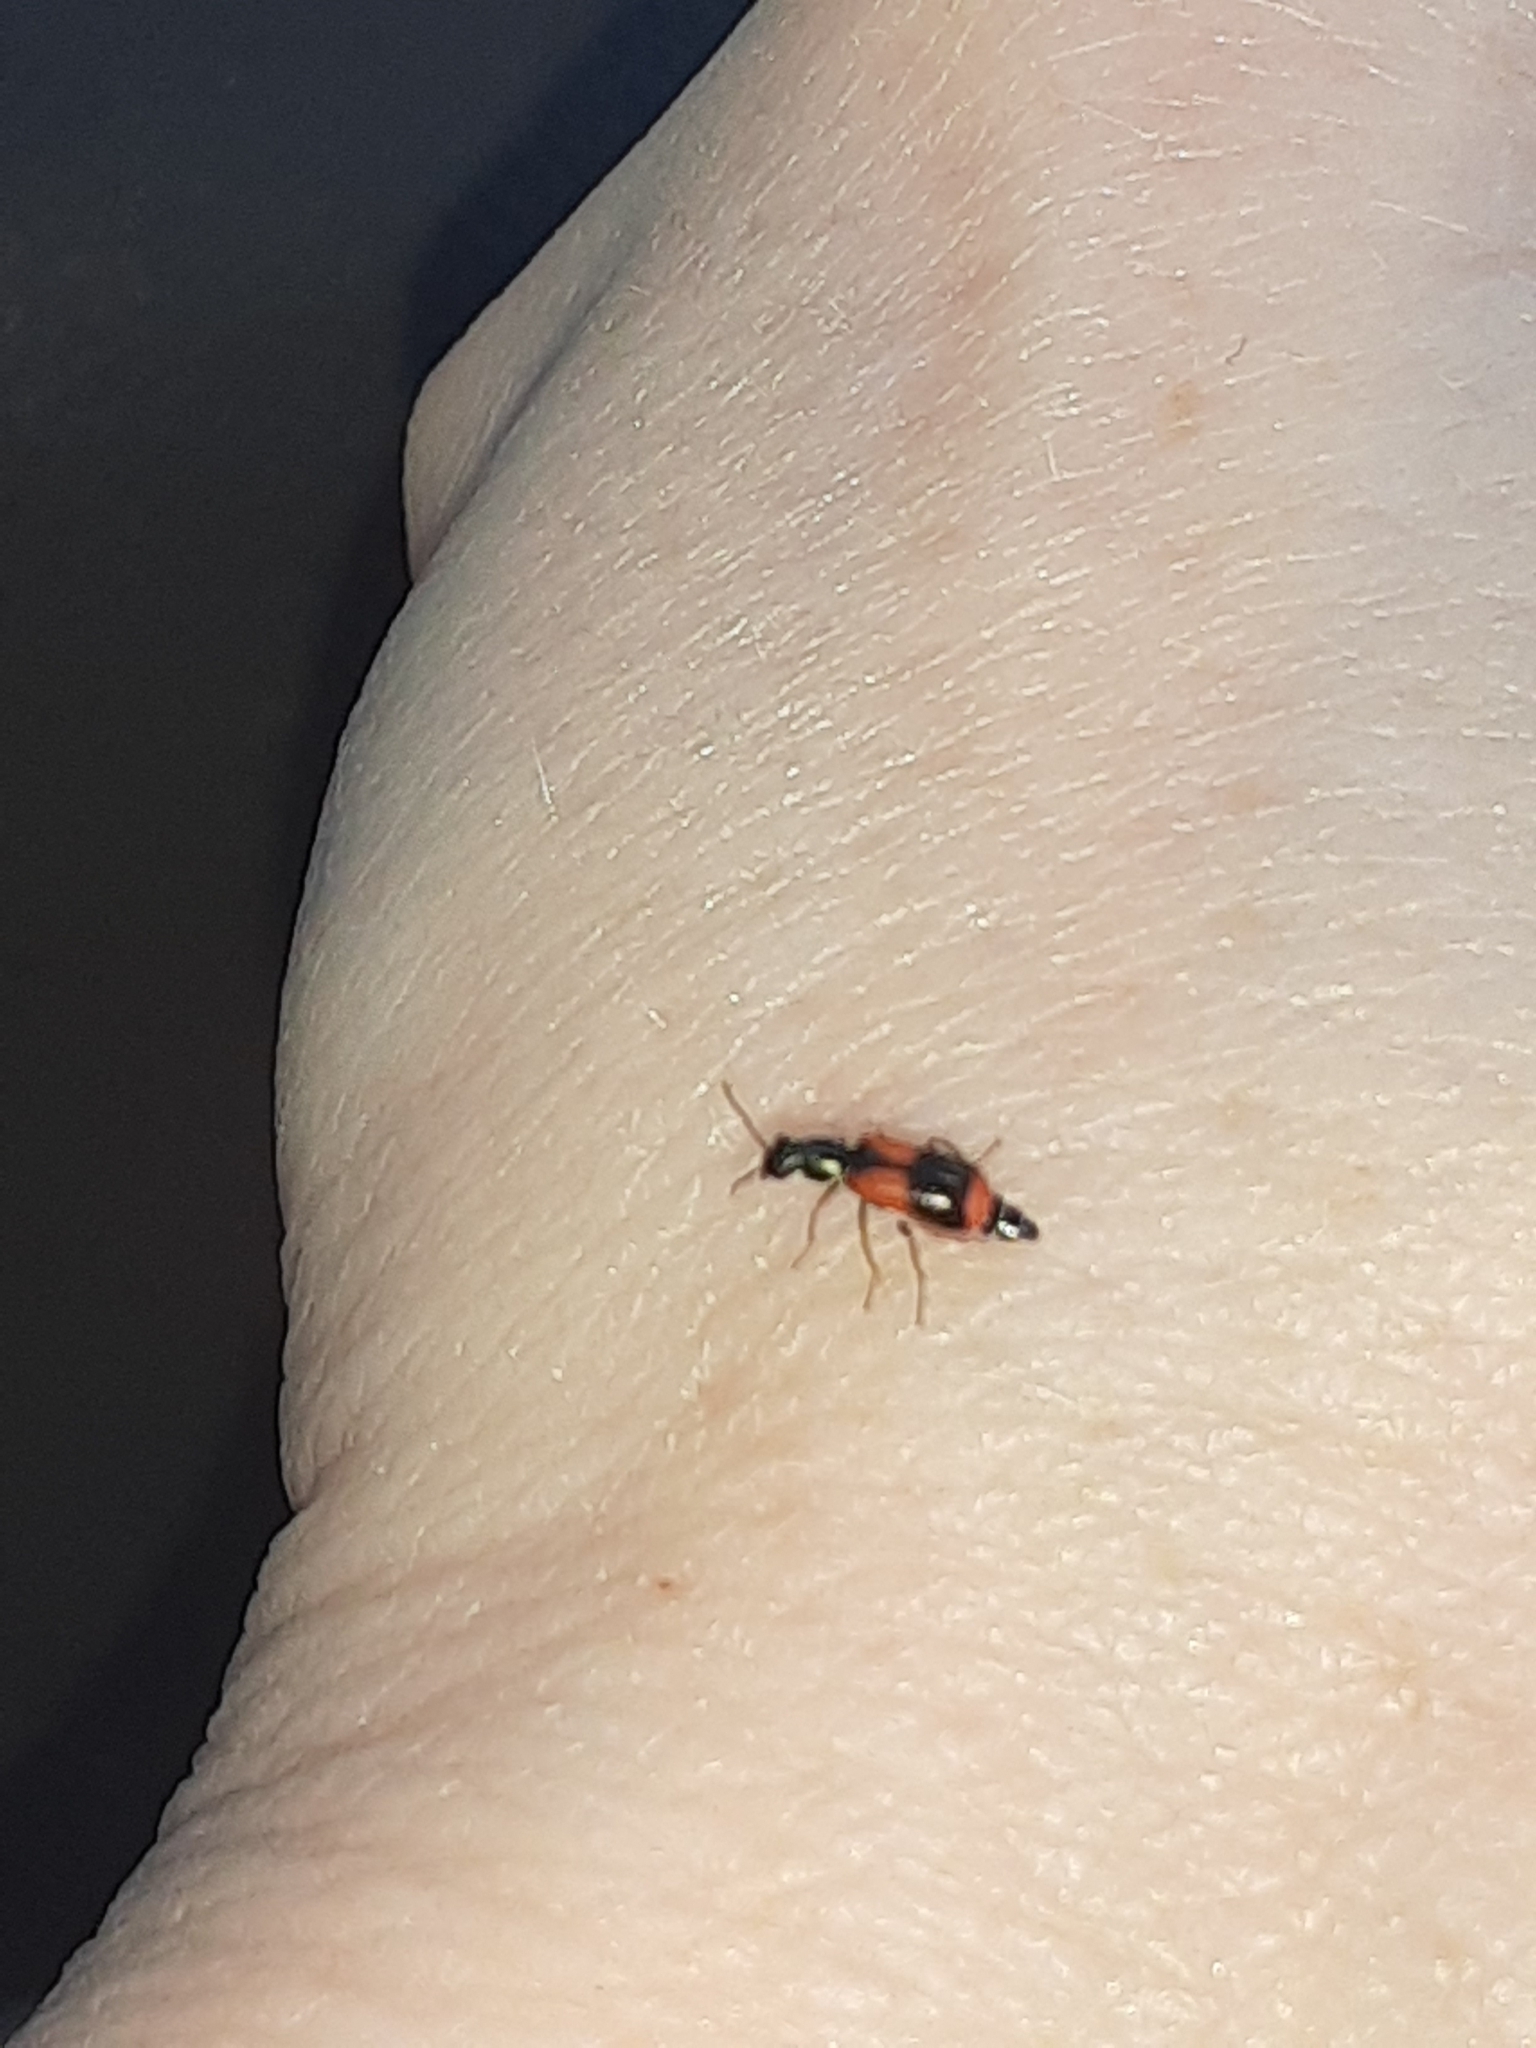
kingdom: Animalia
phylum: Arthropoda
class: Insecta
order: Coleoptera
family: Melyridae
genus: Anthocomus
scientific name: Anthocomus equestris
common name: Black-banded soft-winged flower beetle
